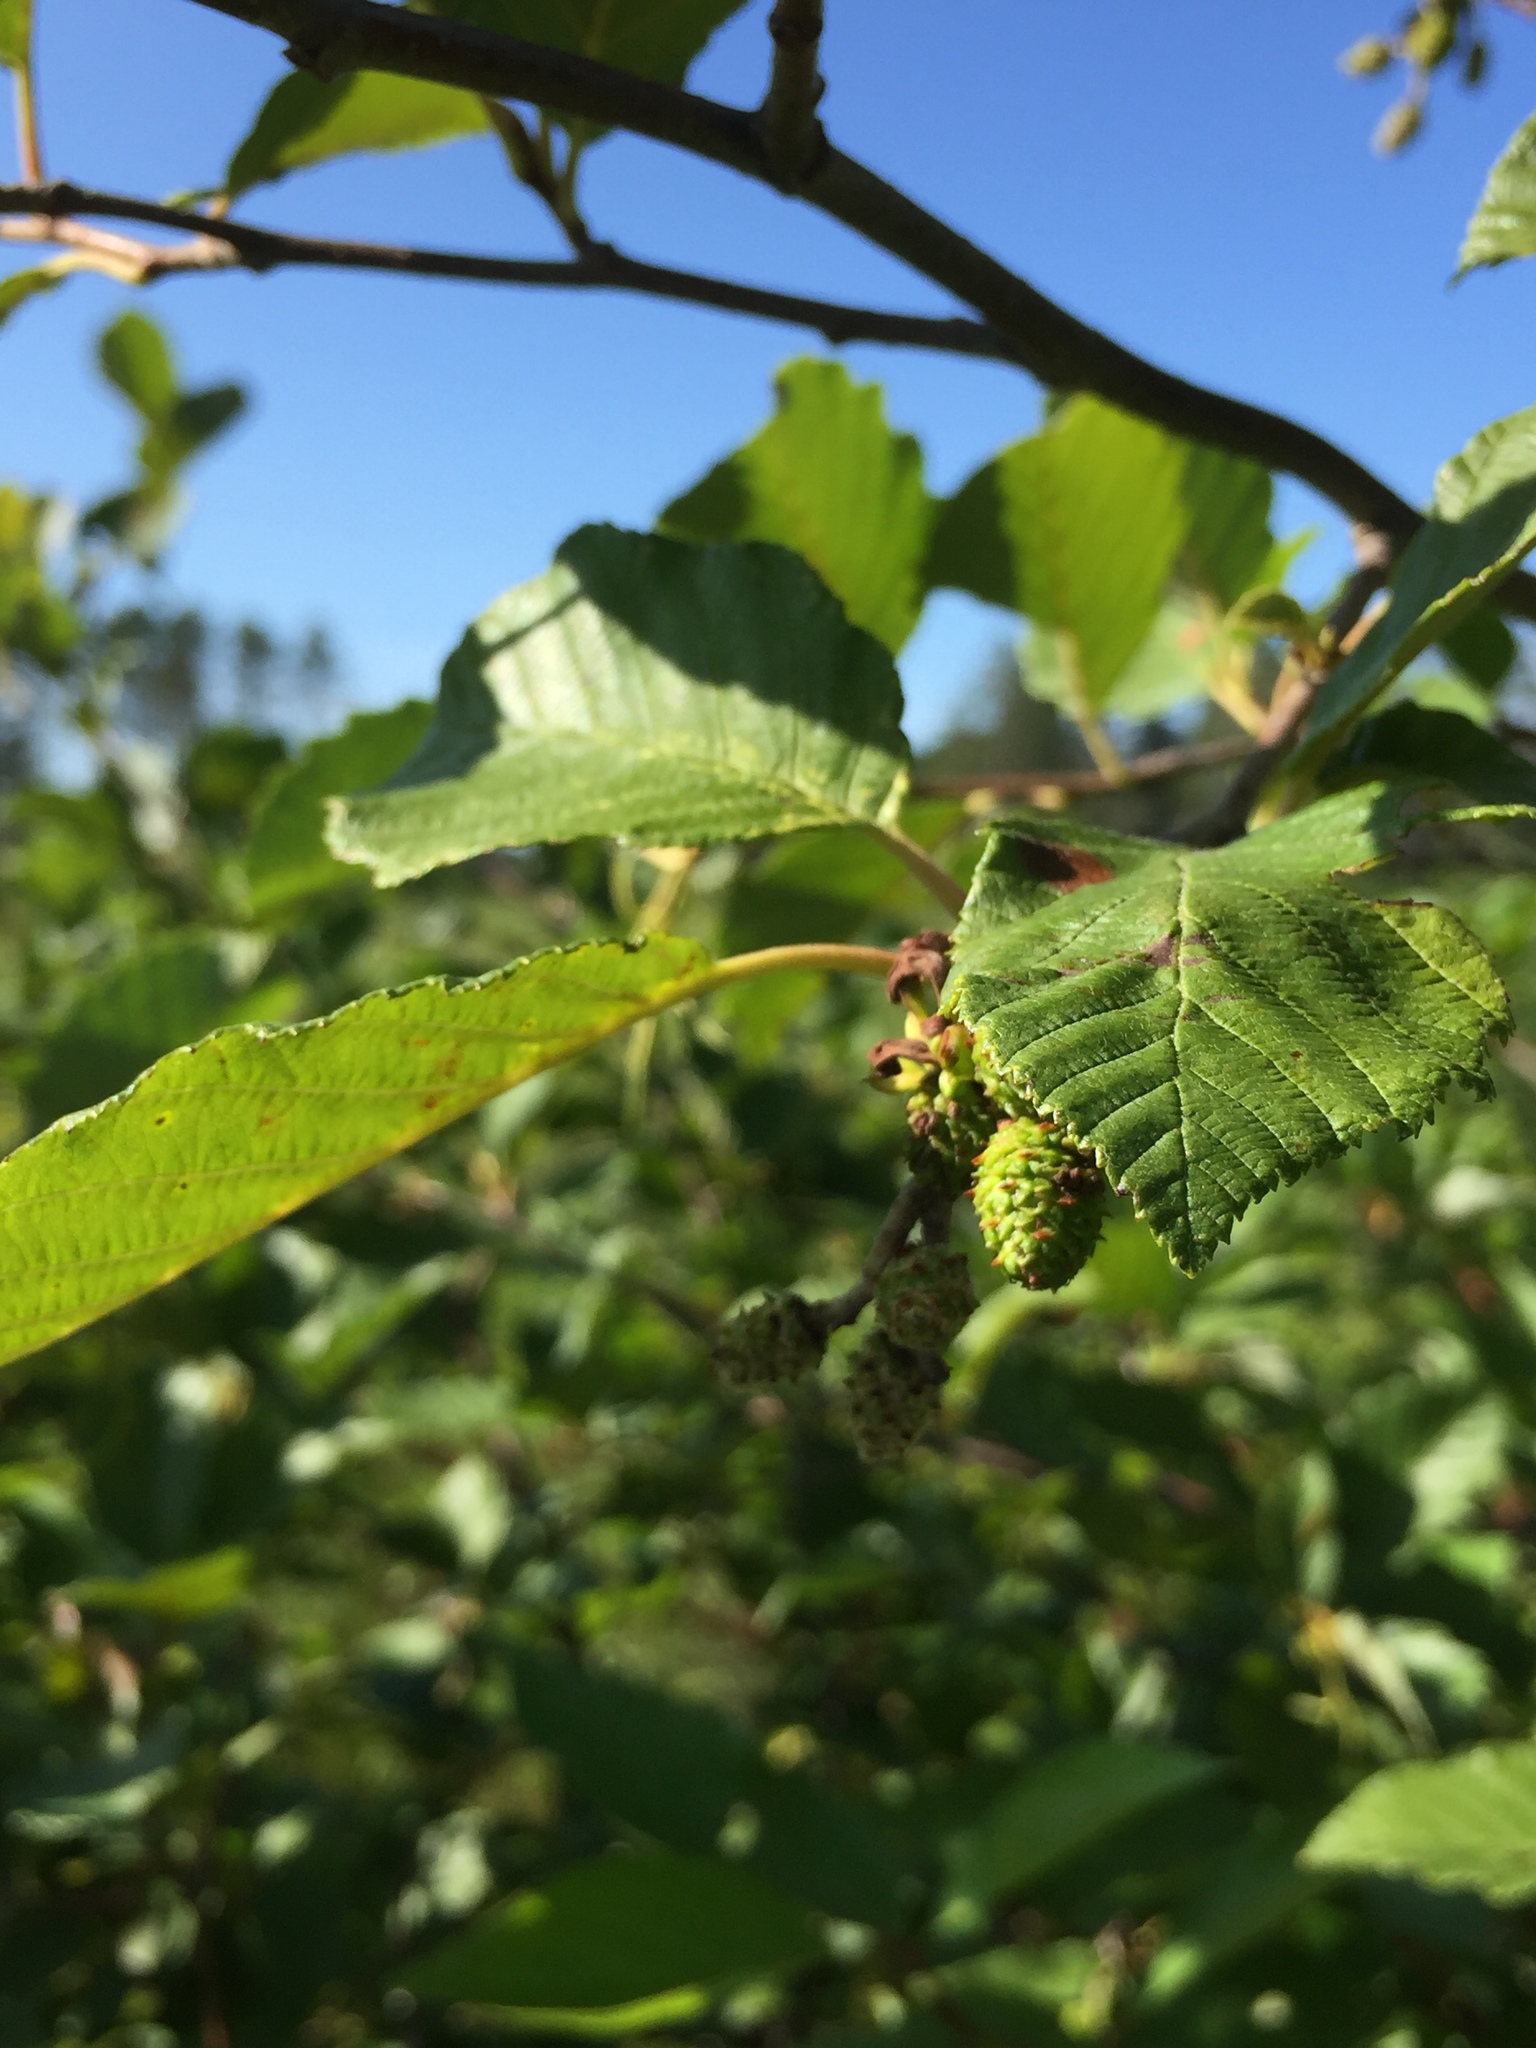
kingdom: Plantae
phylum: Tracheophyta
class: Magnoliopsida
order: Fagales
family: Betulaceae
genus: Alnus
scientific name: Alnus incana
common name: Grey alder
